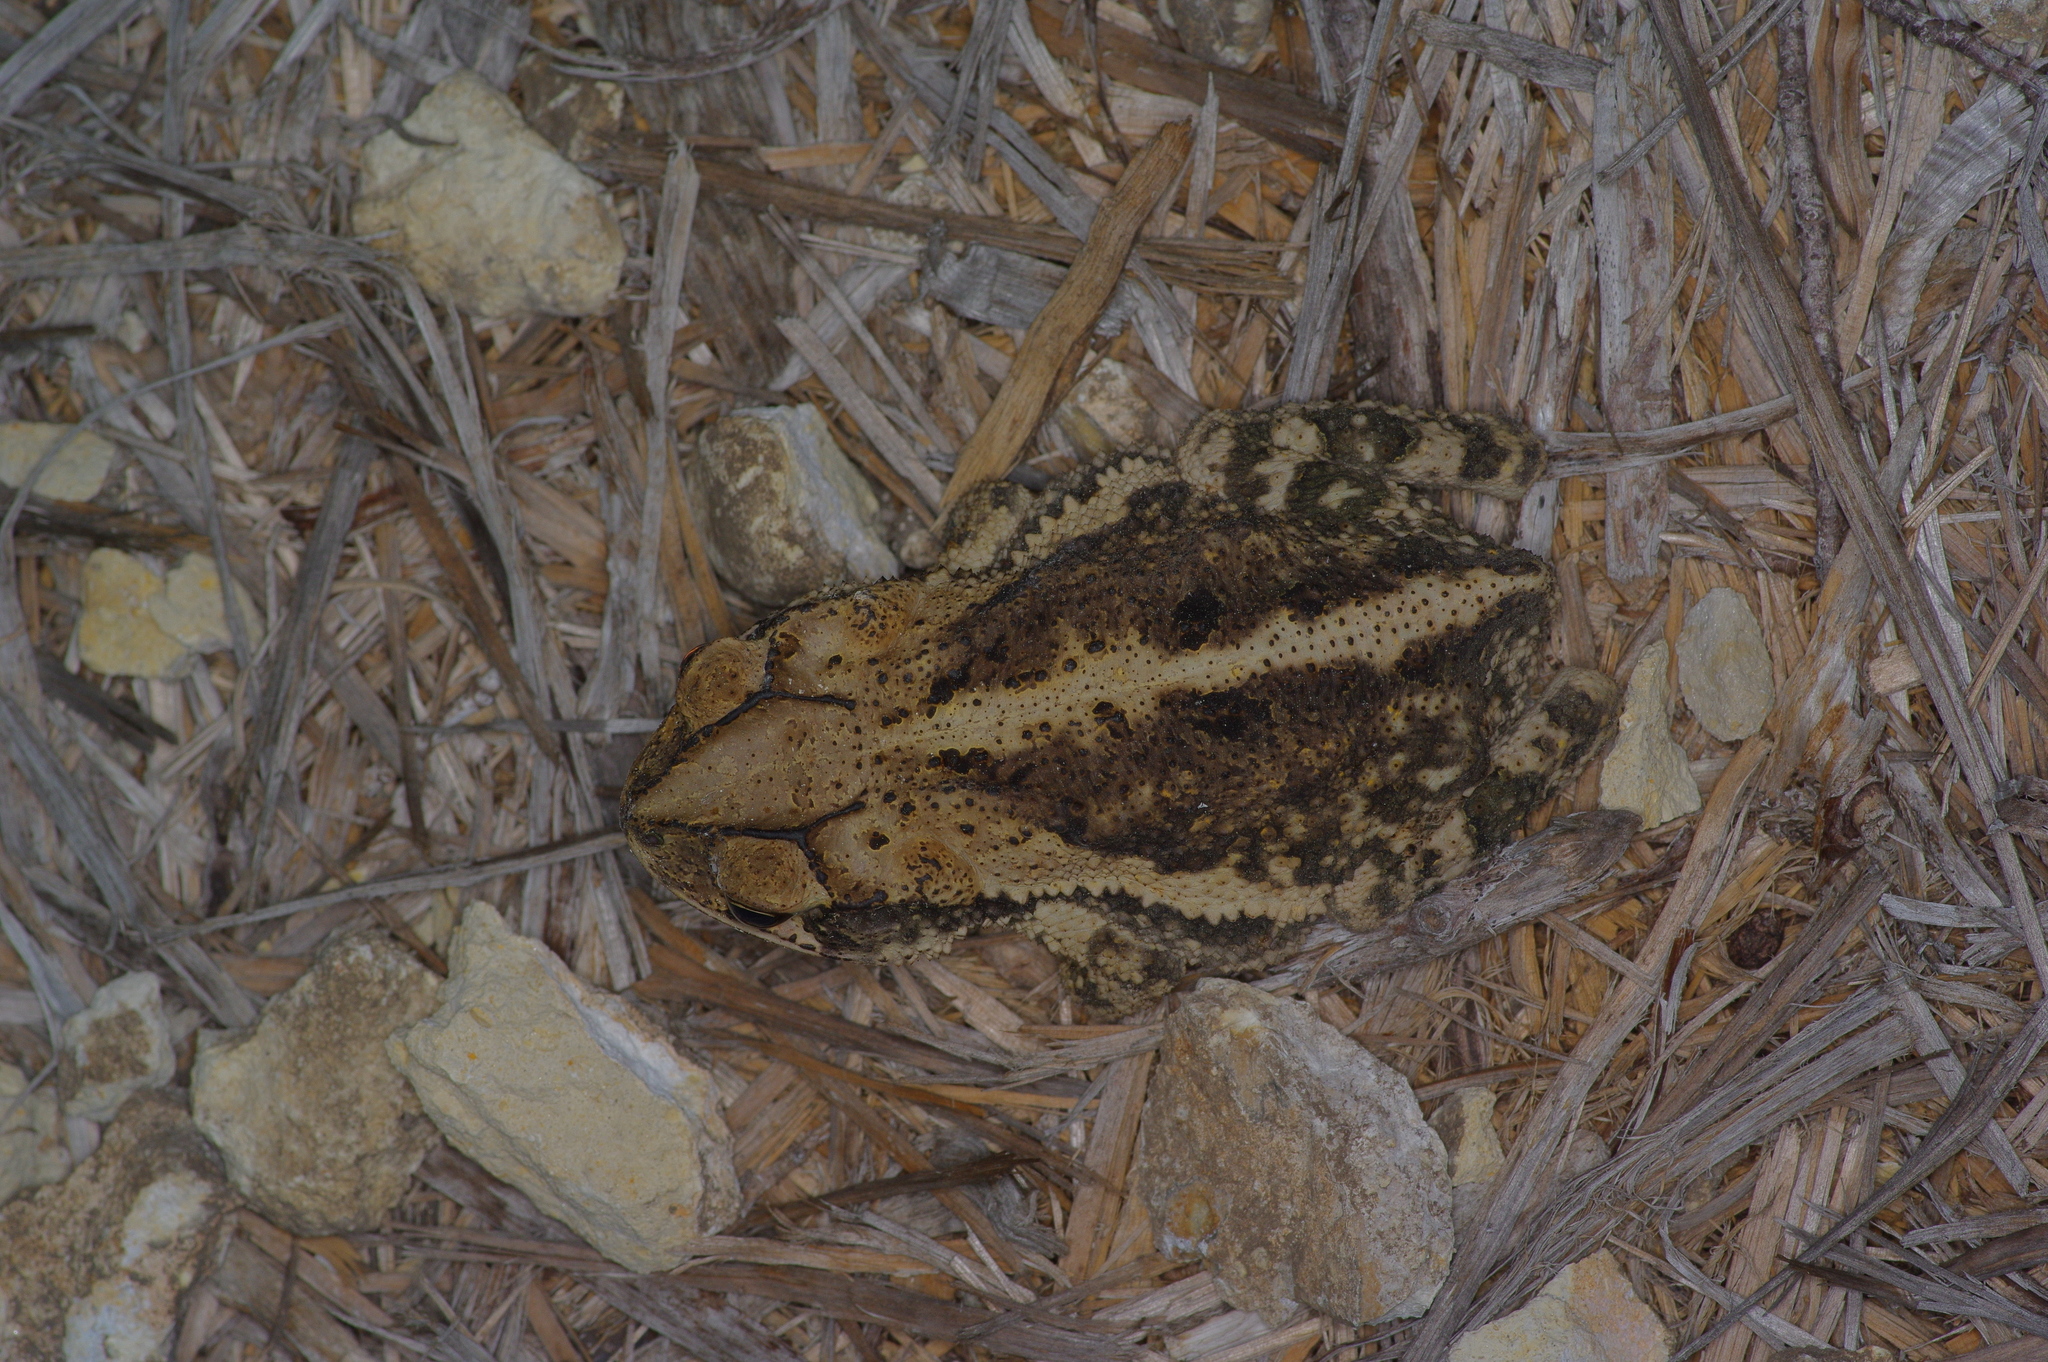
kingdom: Animalia
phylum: Chordata
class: Amphibia
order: Anura
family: Bufonidae
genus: Incilius
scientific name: Incilius nebulifer
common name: Gulf coast toad
